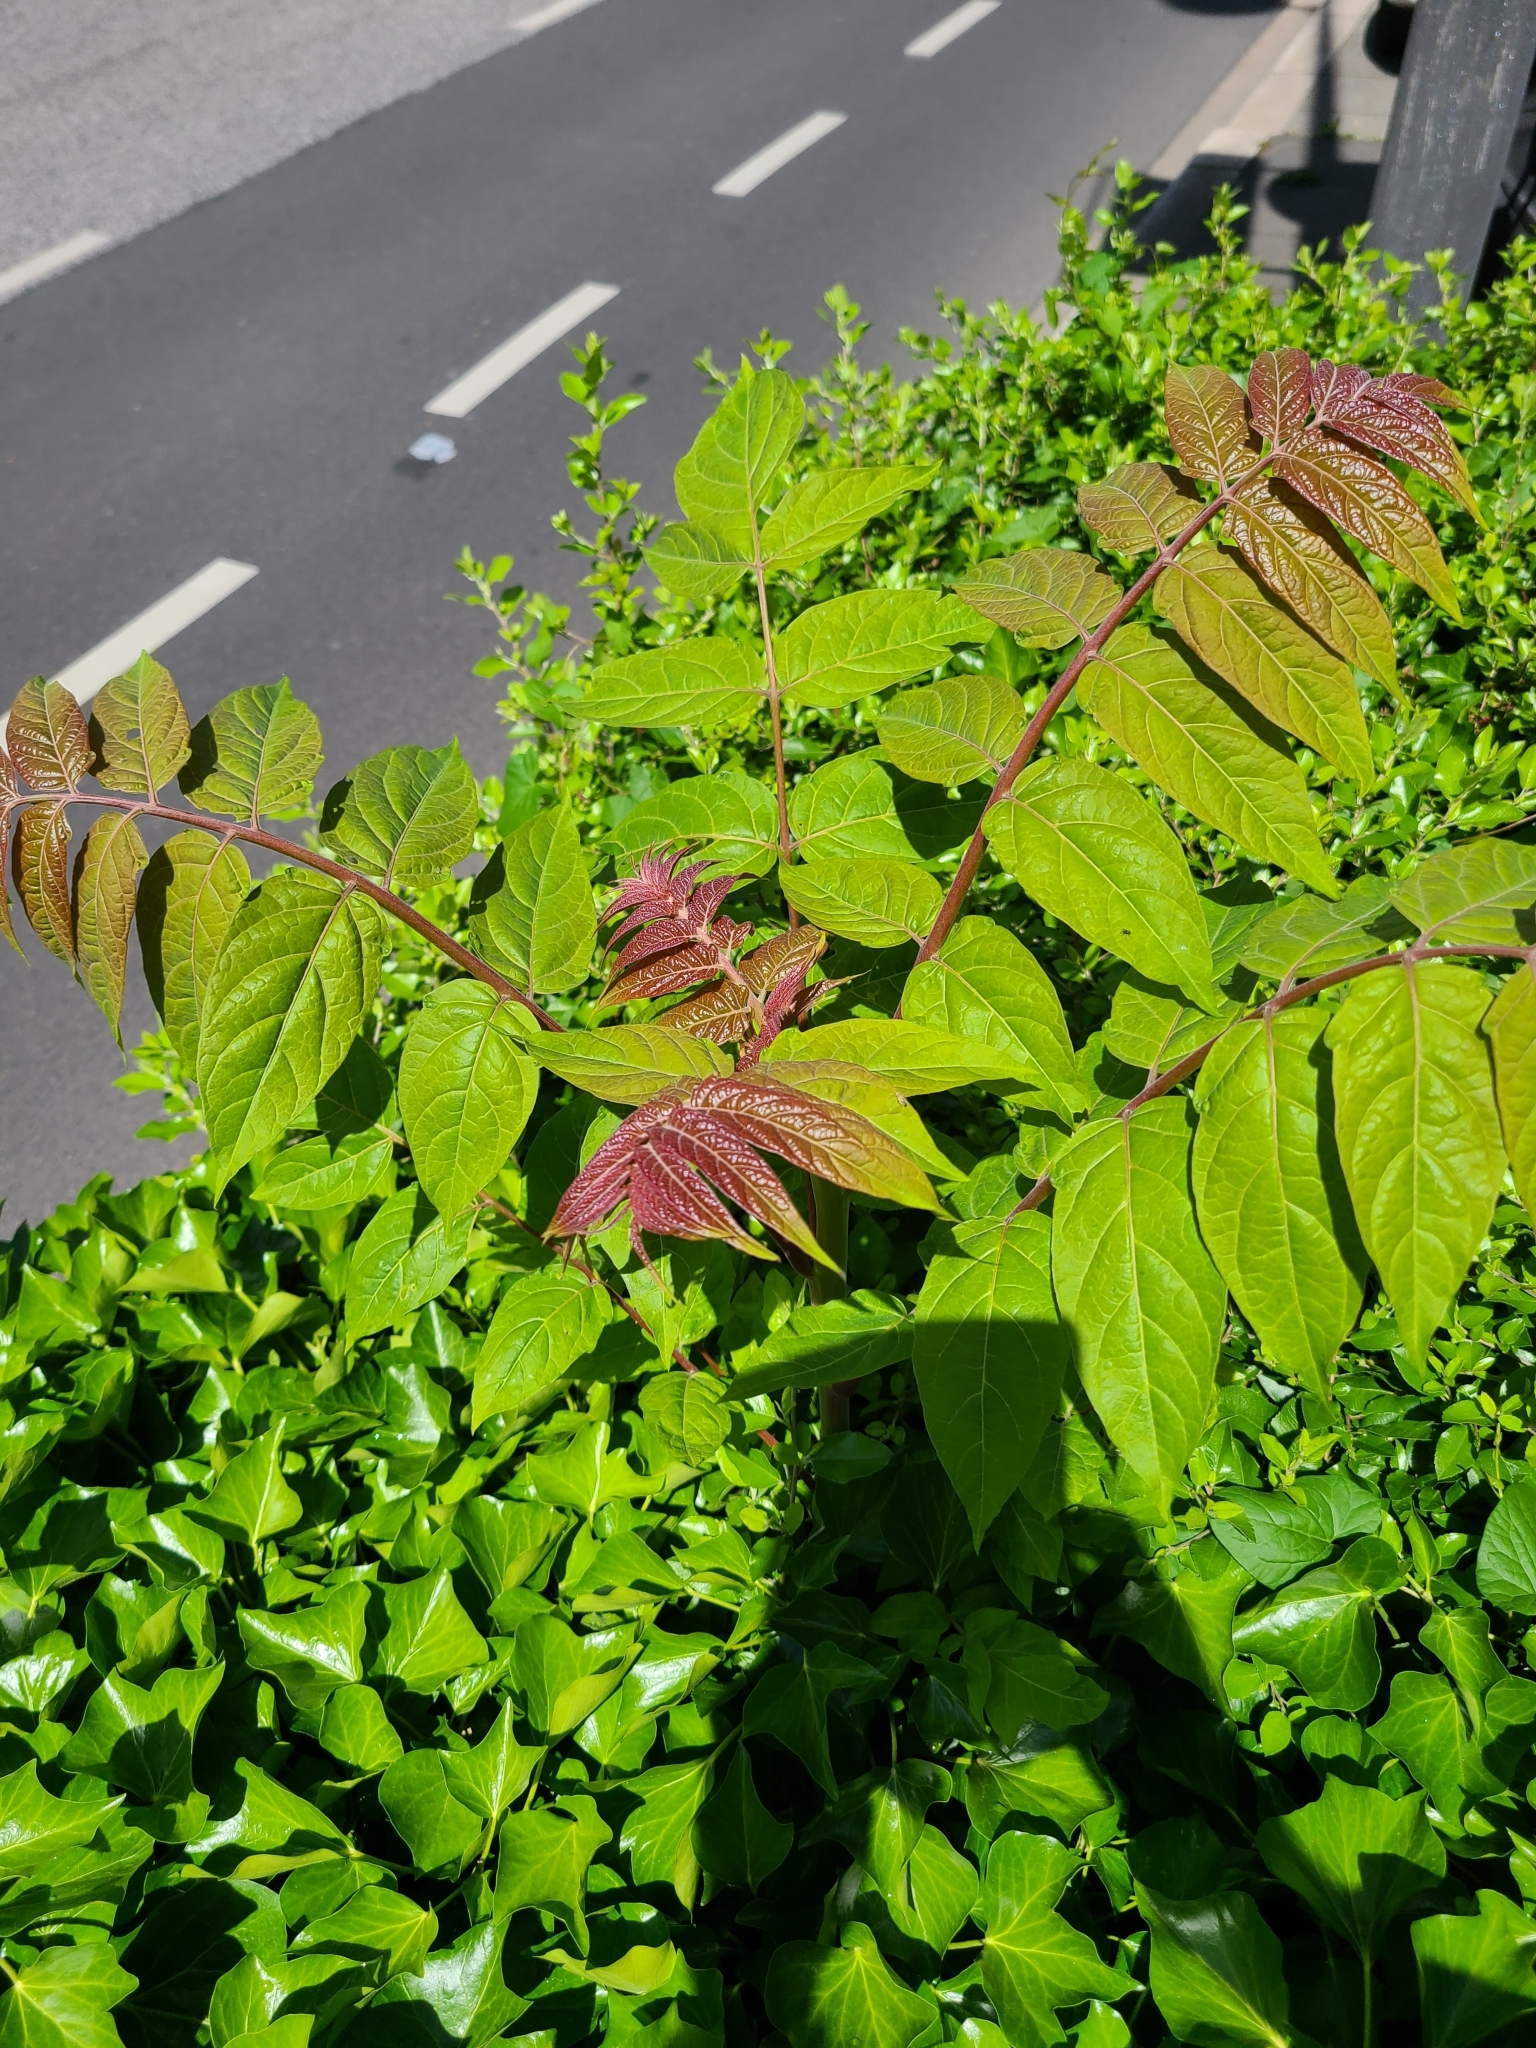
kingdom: Plantae
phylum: Tracheophyta
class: Magnoliopsida
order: Sapindales
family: Simaroubaceae
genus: Ailanthus
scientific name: Ailanthus altissima
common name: Tree-of-heaven
